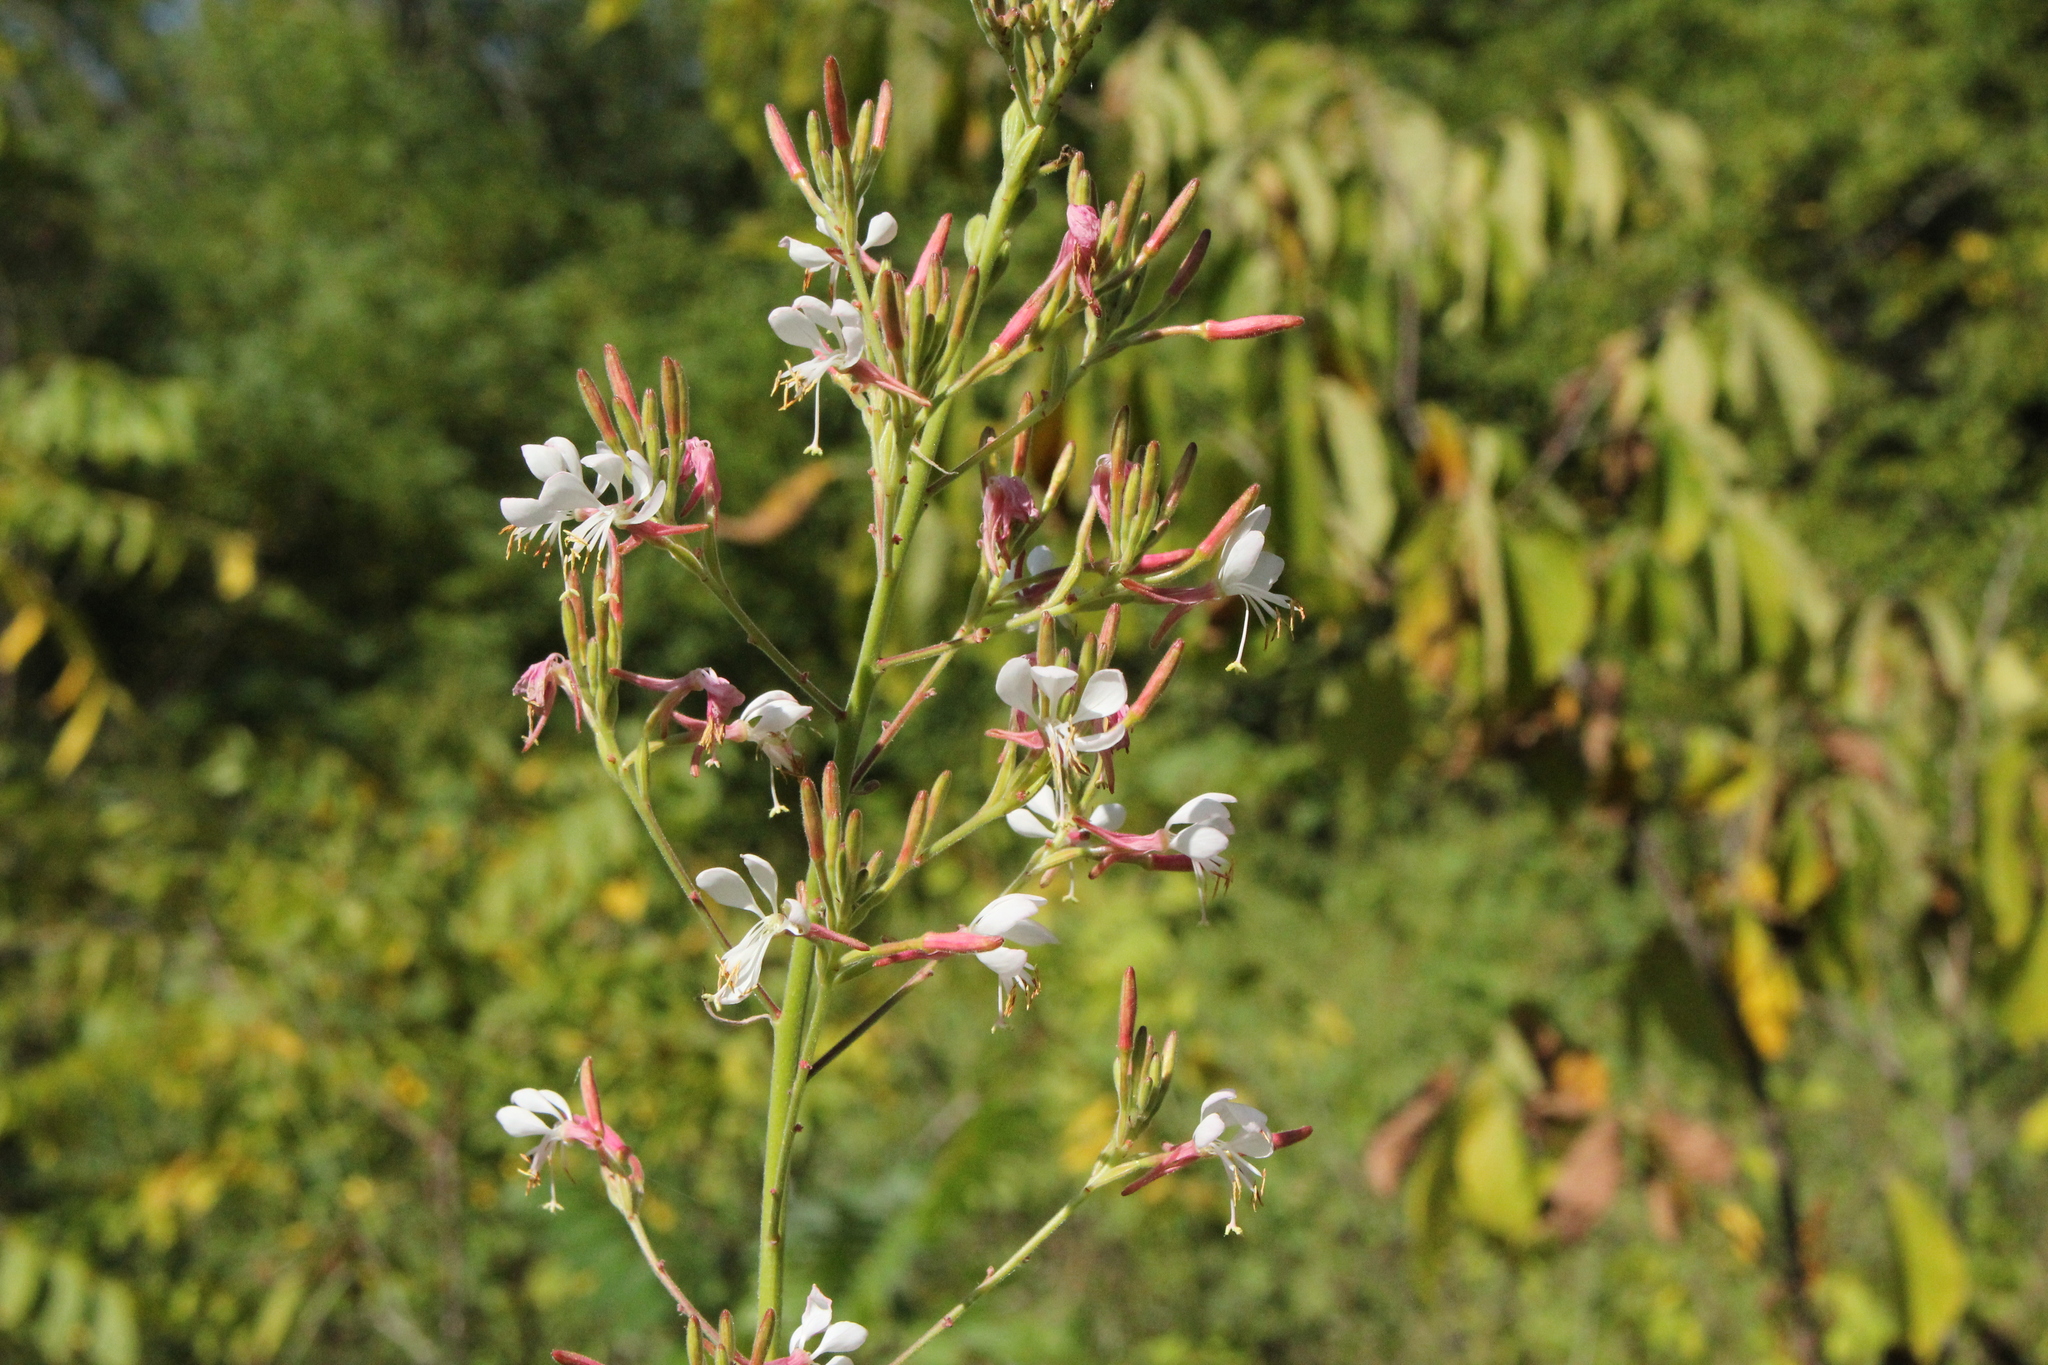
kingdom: Plantae
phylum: Tracheophyta
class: Magnoliopsida
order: Myrtales
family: Onagraceae
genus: Oenothera
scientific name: Oenothera gaura
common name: Biennial beeblossom
